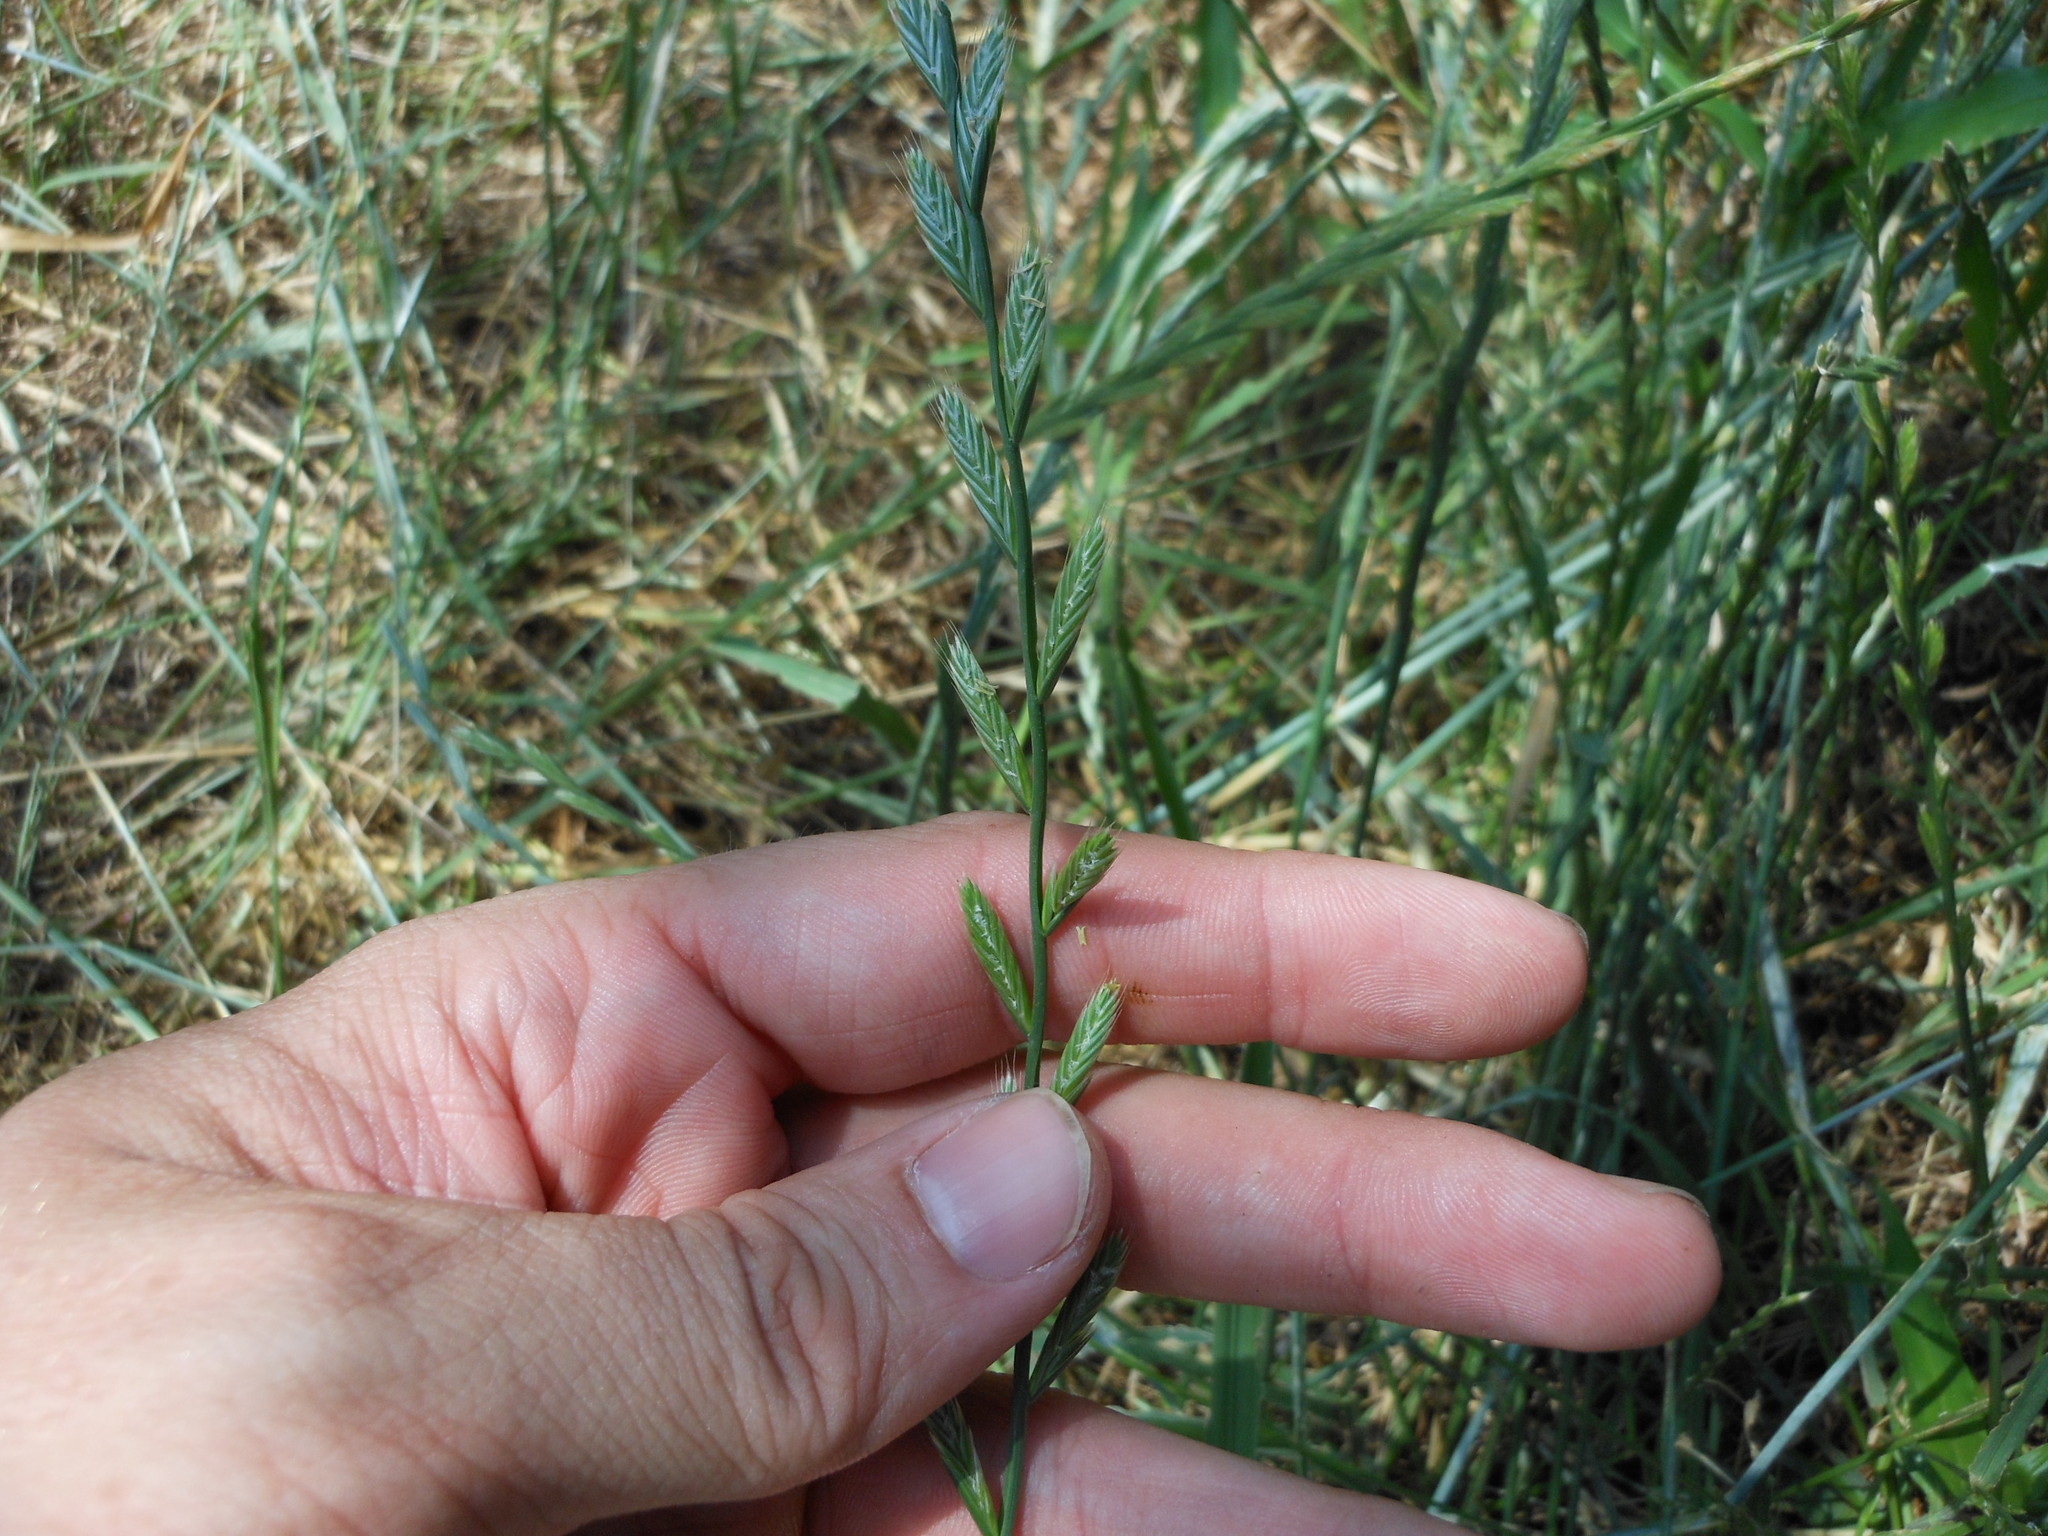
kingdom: Plantae
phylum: Tracheophyta
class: Liliopsida
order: Poales
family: Poaceae
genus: Lolium
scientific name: Lolium perenne
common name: Perennial ryegrass
